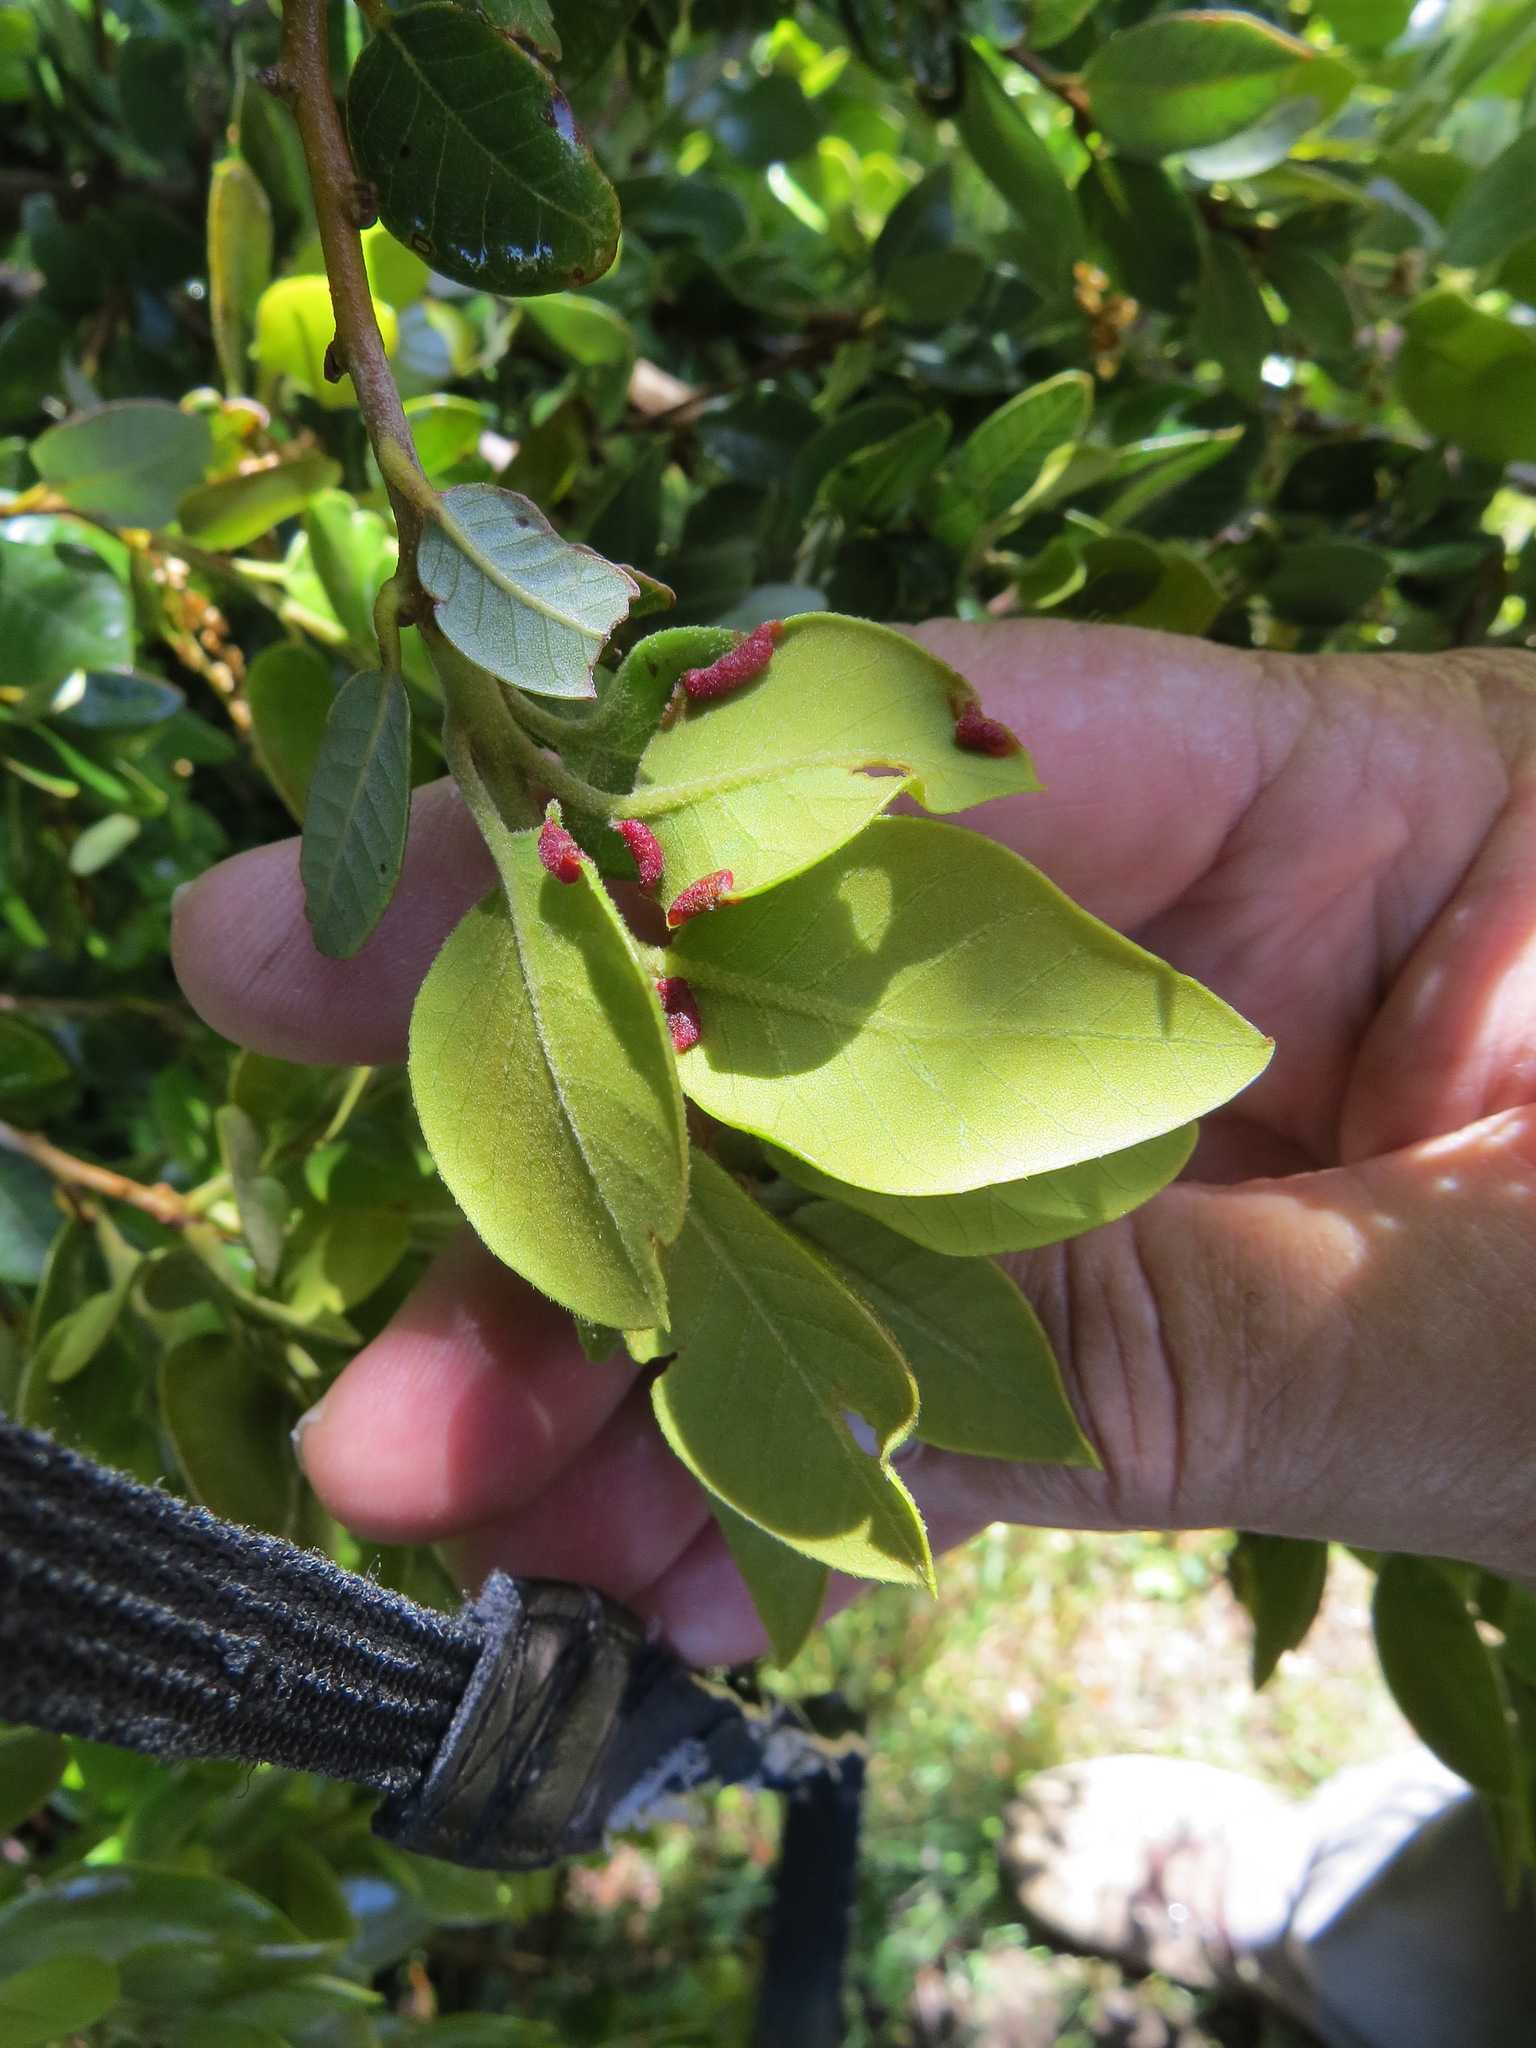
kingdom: Animalia
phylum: Arthropoda
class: Insecta
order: Diptera
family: Cecidomyiidae
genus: Dasineura
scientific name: Dasineura silvestrii
